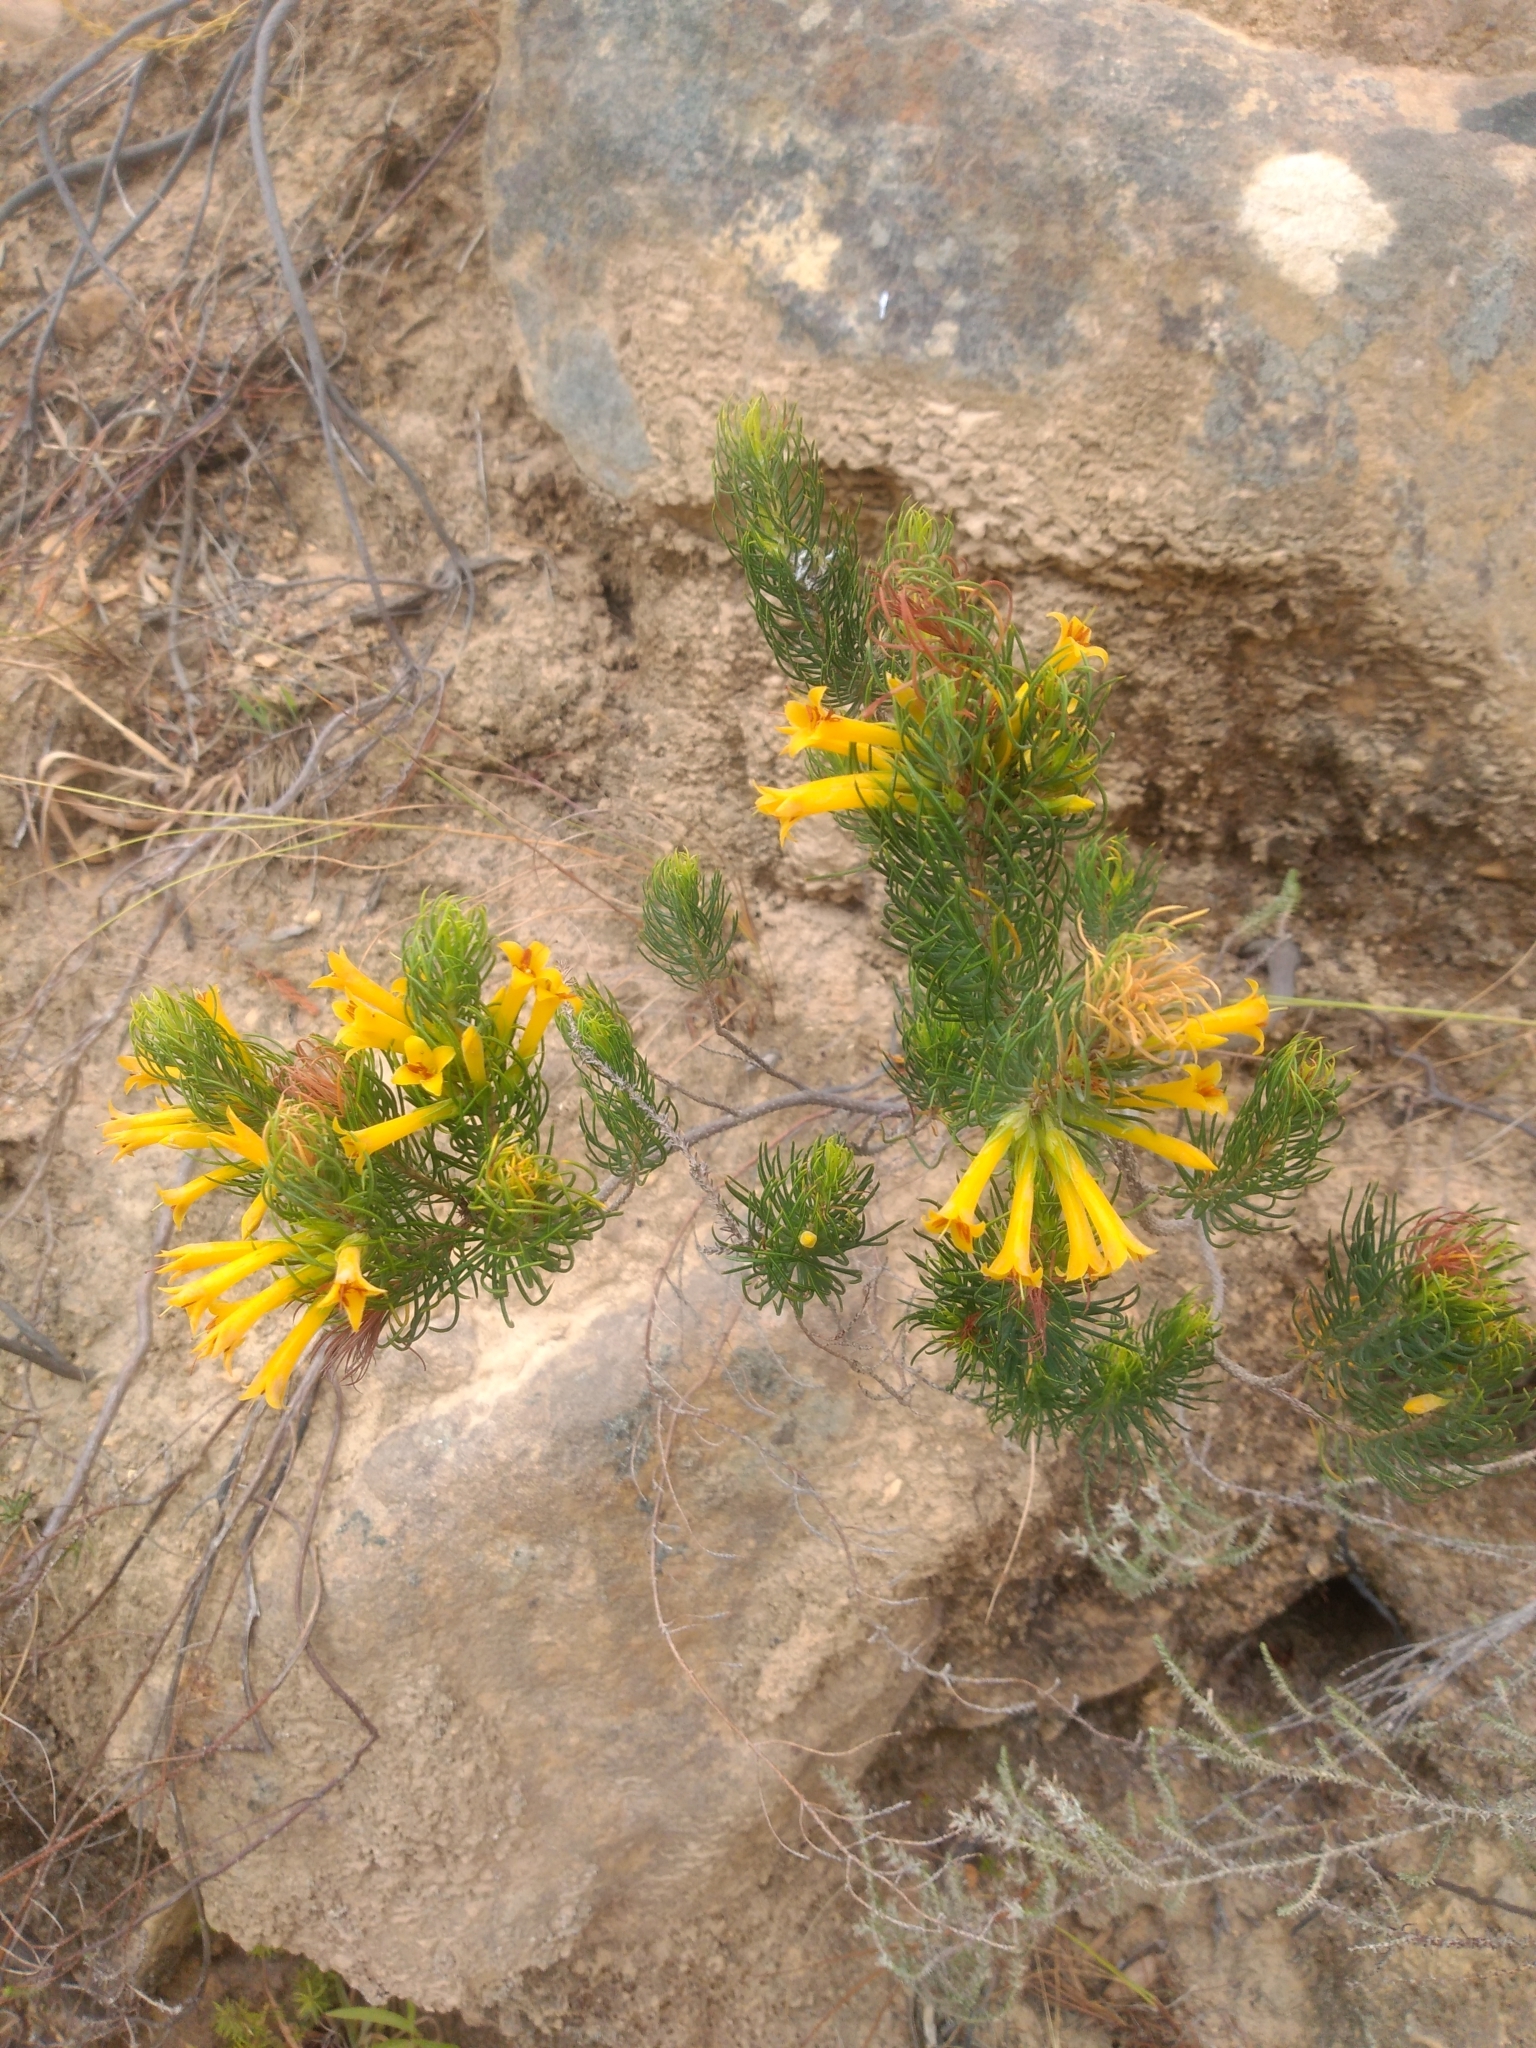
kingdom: Plantae
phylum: Tracheophyta
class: Magnoliopsida
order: Ericales
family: Ericaceae
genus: Erica
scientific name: Erica grandiflora
